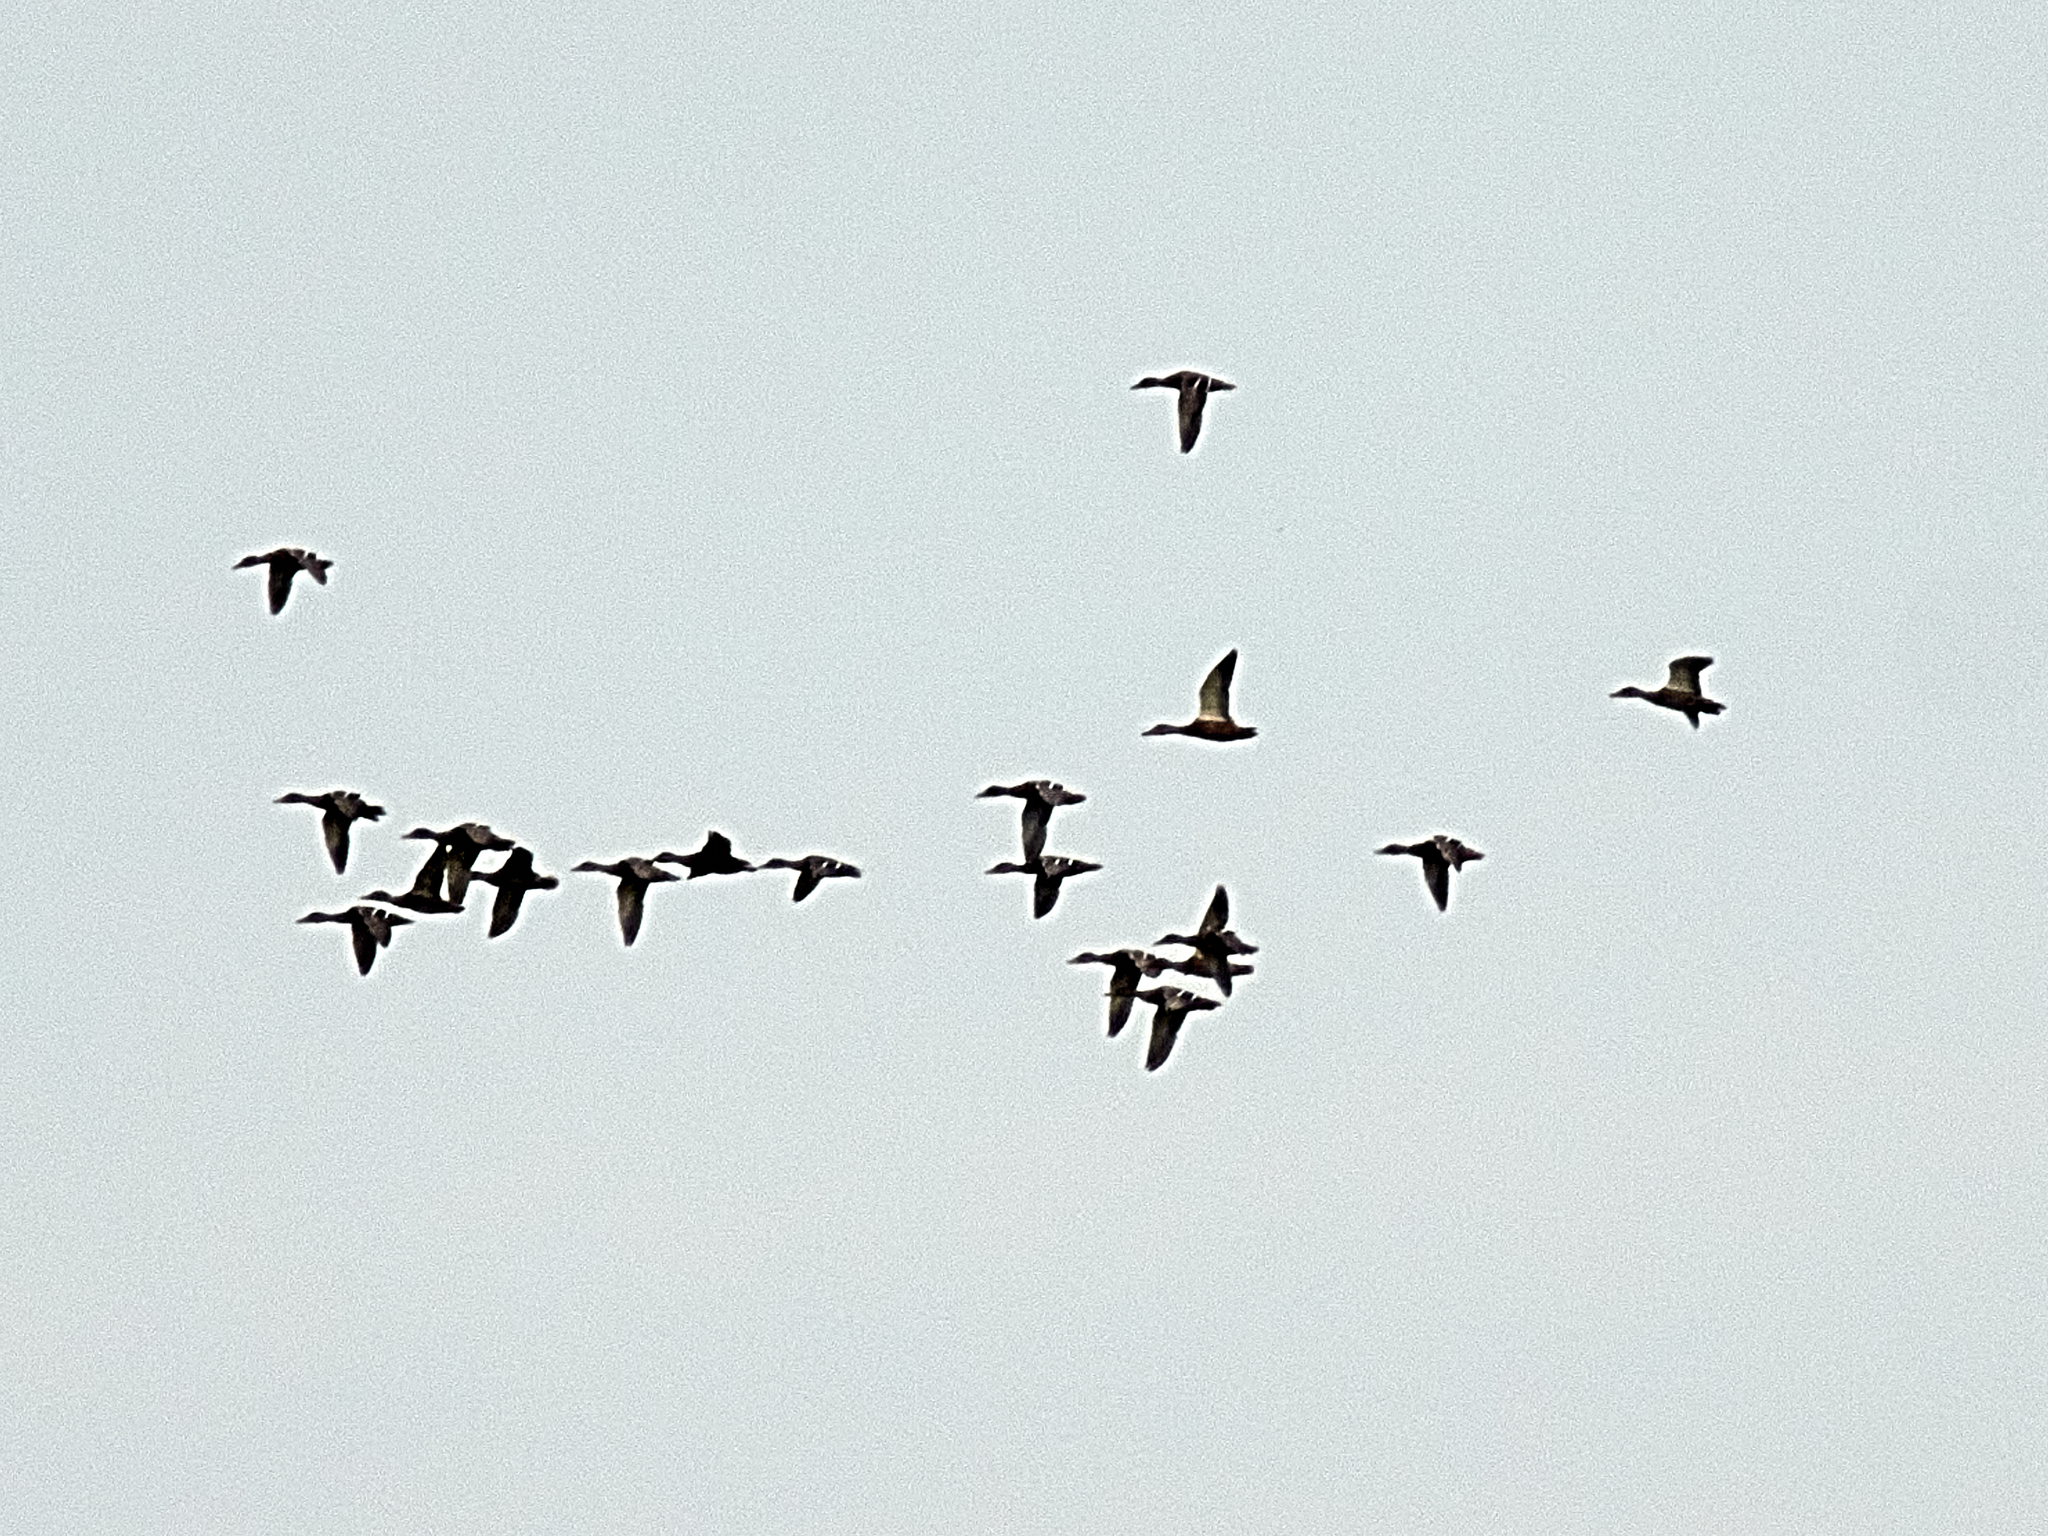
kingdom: Animalia
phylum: Chordata
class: Aves
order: Anseriformes
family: Anatidae
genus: Anas
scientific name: Anas platyrhynchos
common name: Mallard
